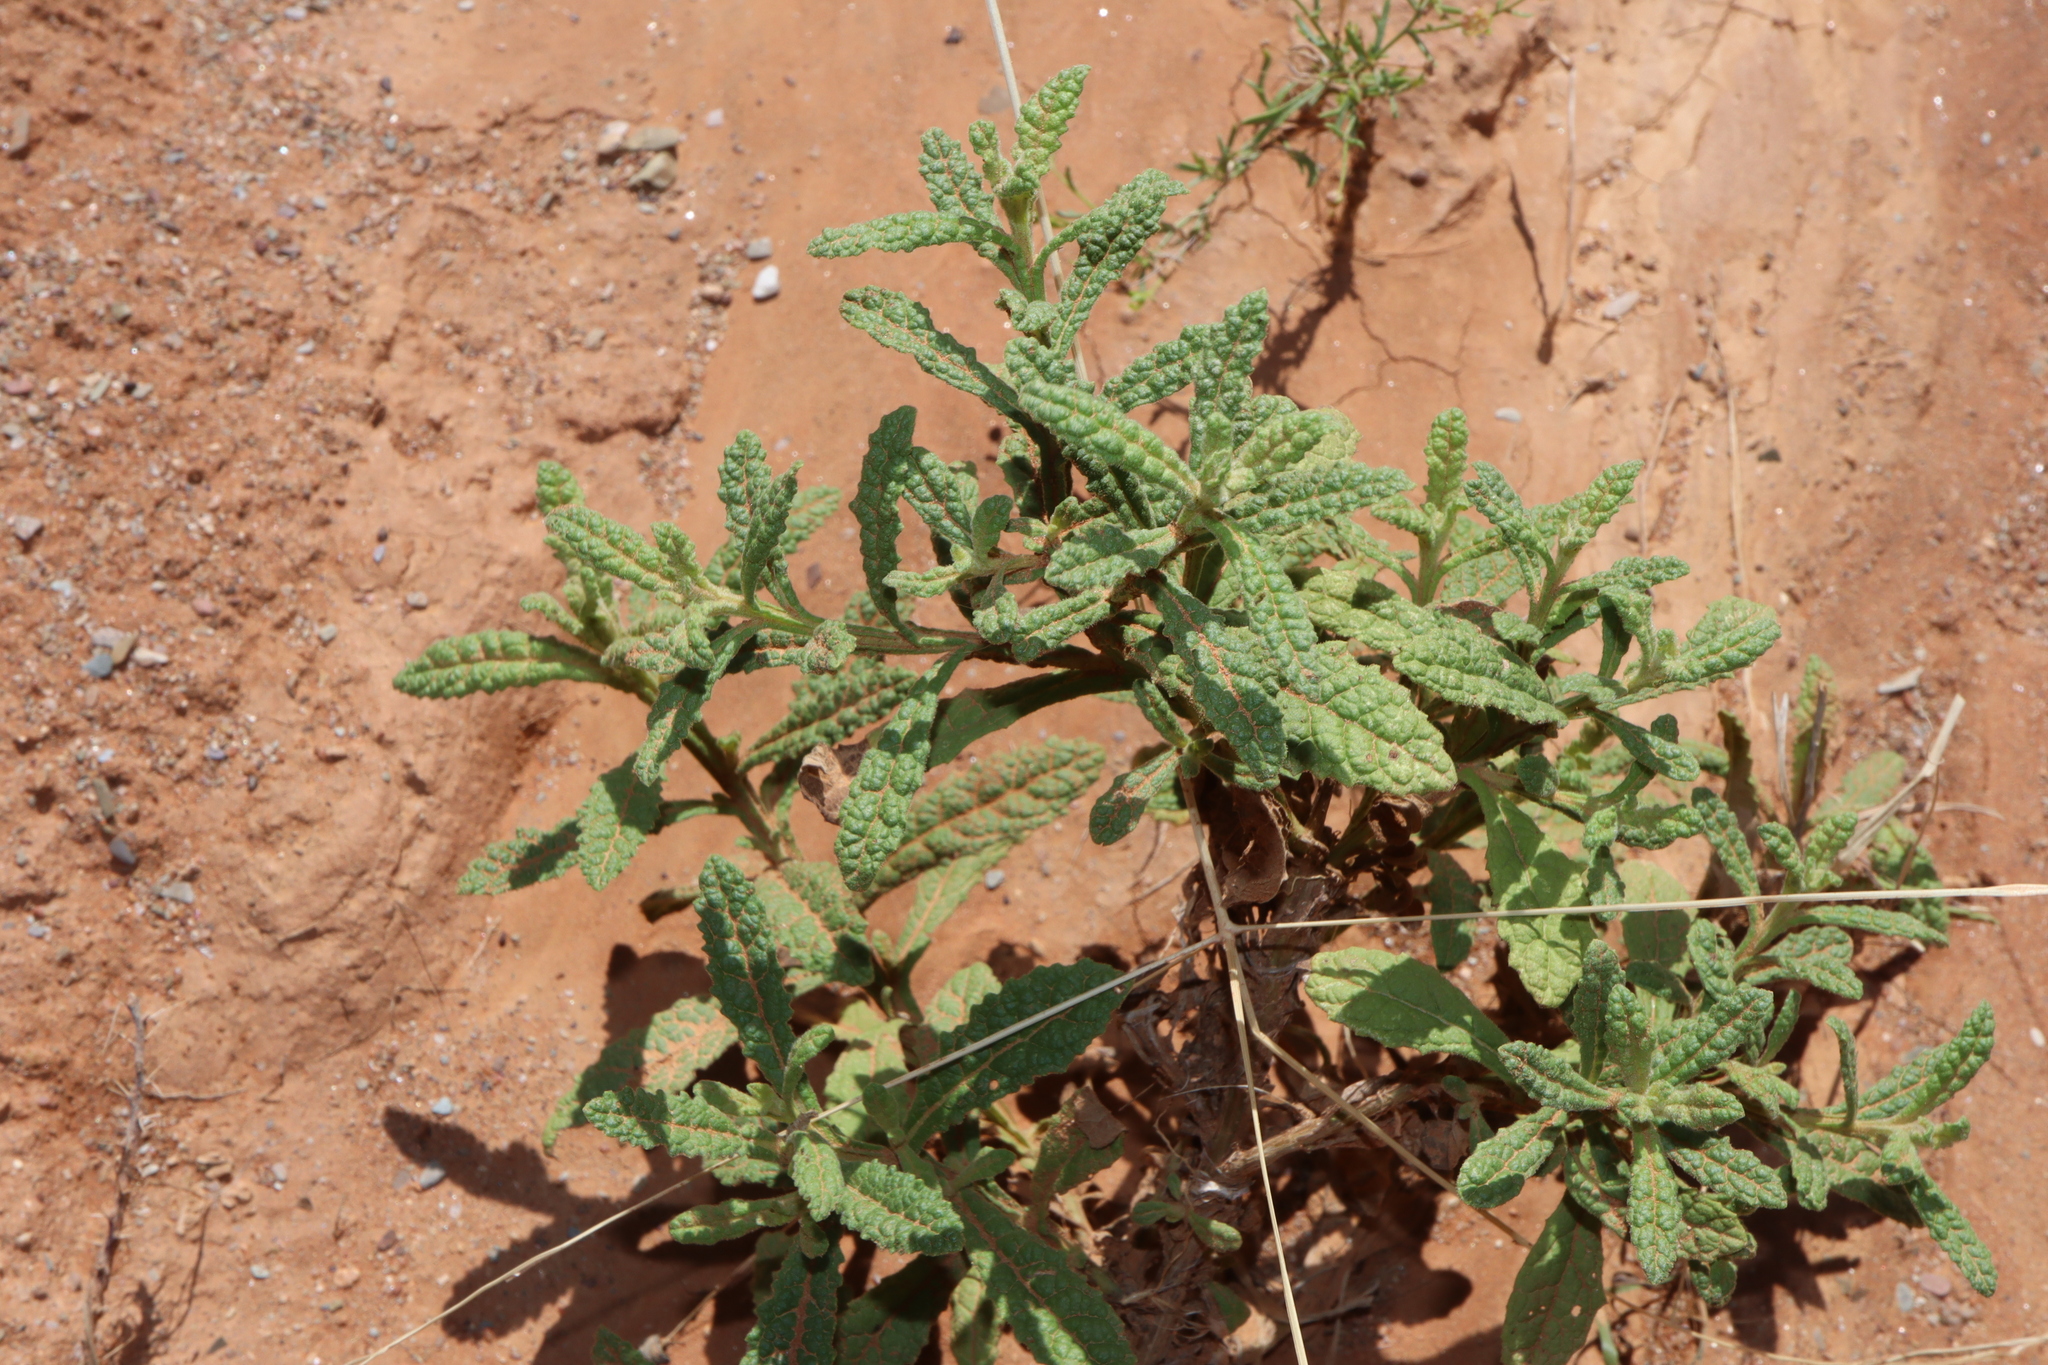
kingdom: Plantae
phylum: Tracheophyta
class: Magnoliopsida
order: Asterales
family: Asteraceae
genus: Pterocaulon
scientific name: Pterocaulon sphacelatum
